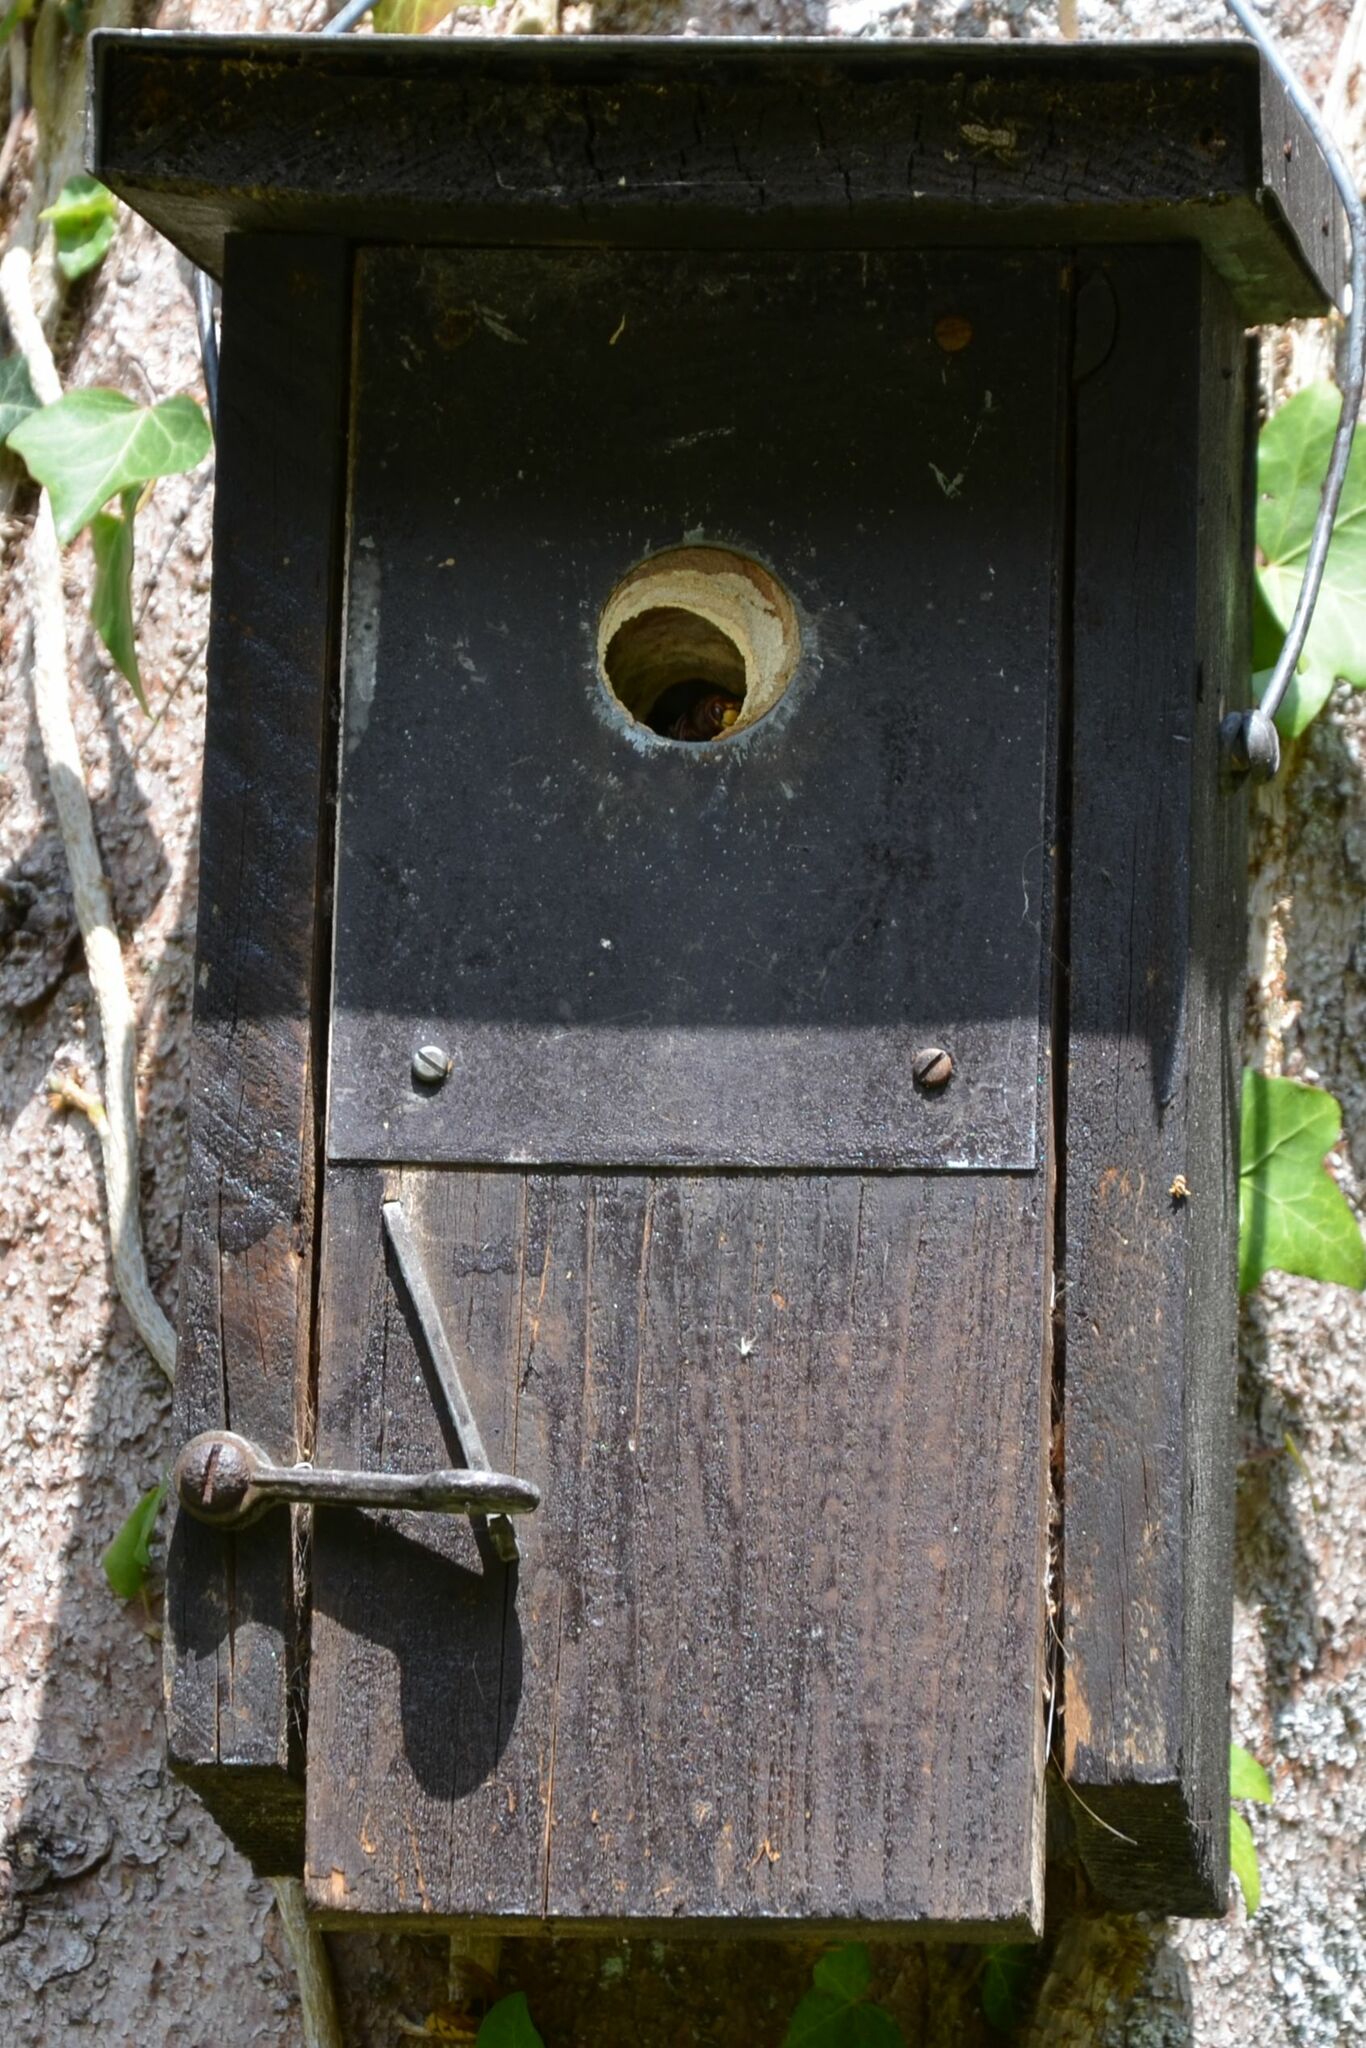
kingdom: Animalia
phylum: Arthropoda
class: Insecta
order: Hymenoptera
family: Vespidae
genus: Vespa
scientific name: Vespa crabro
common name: Hornet
